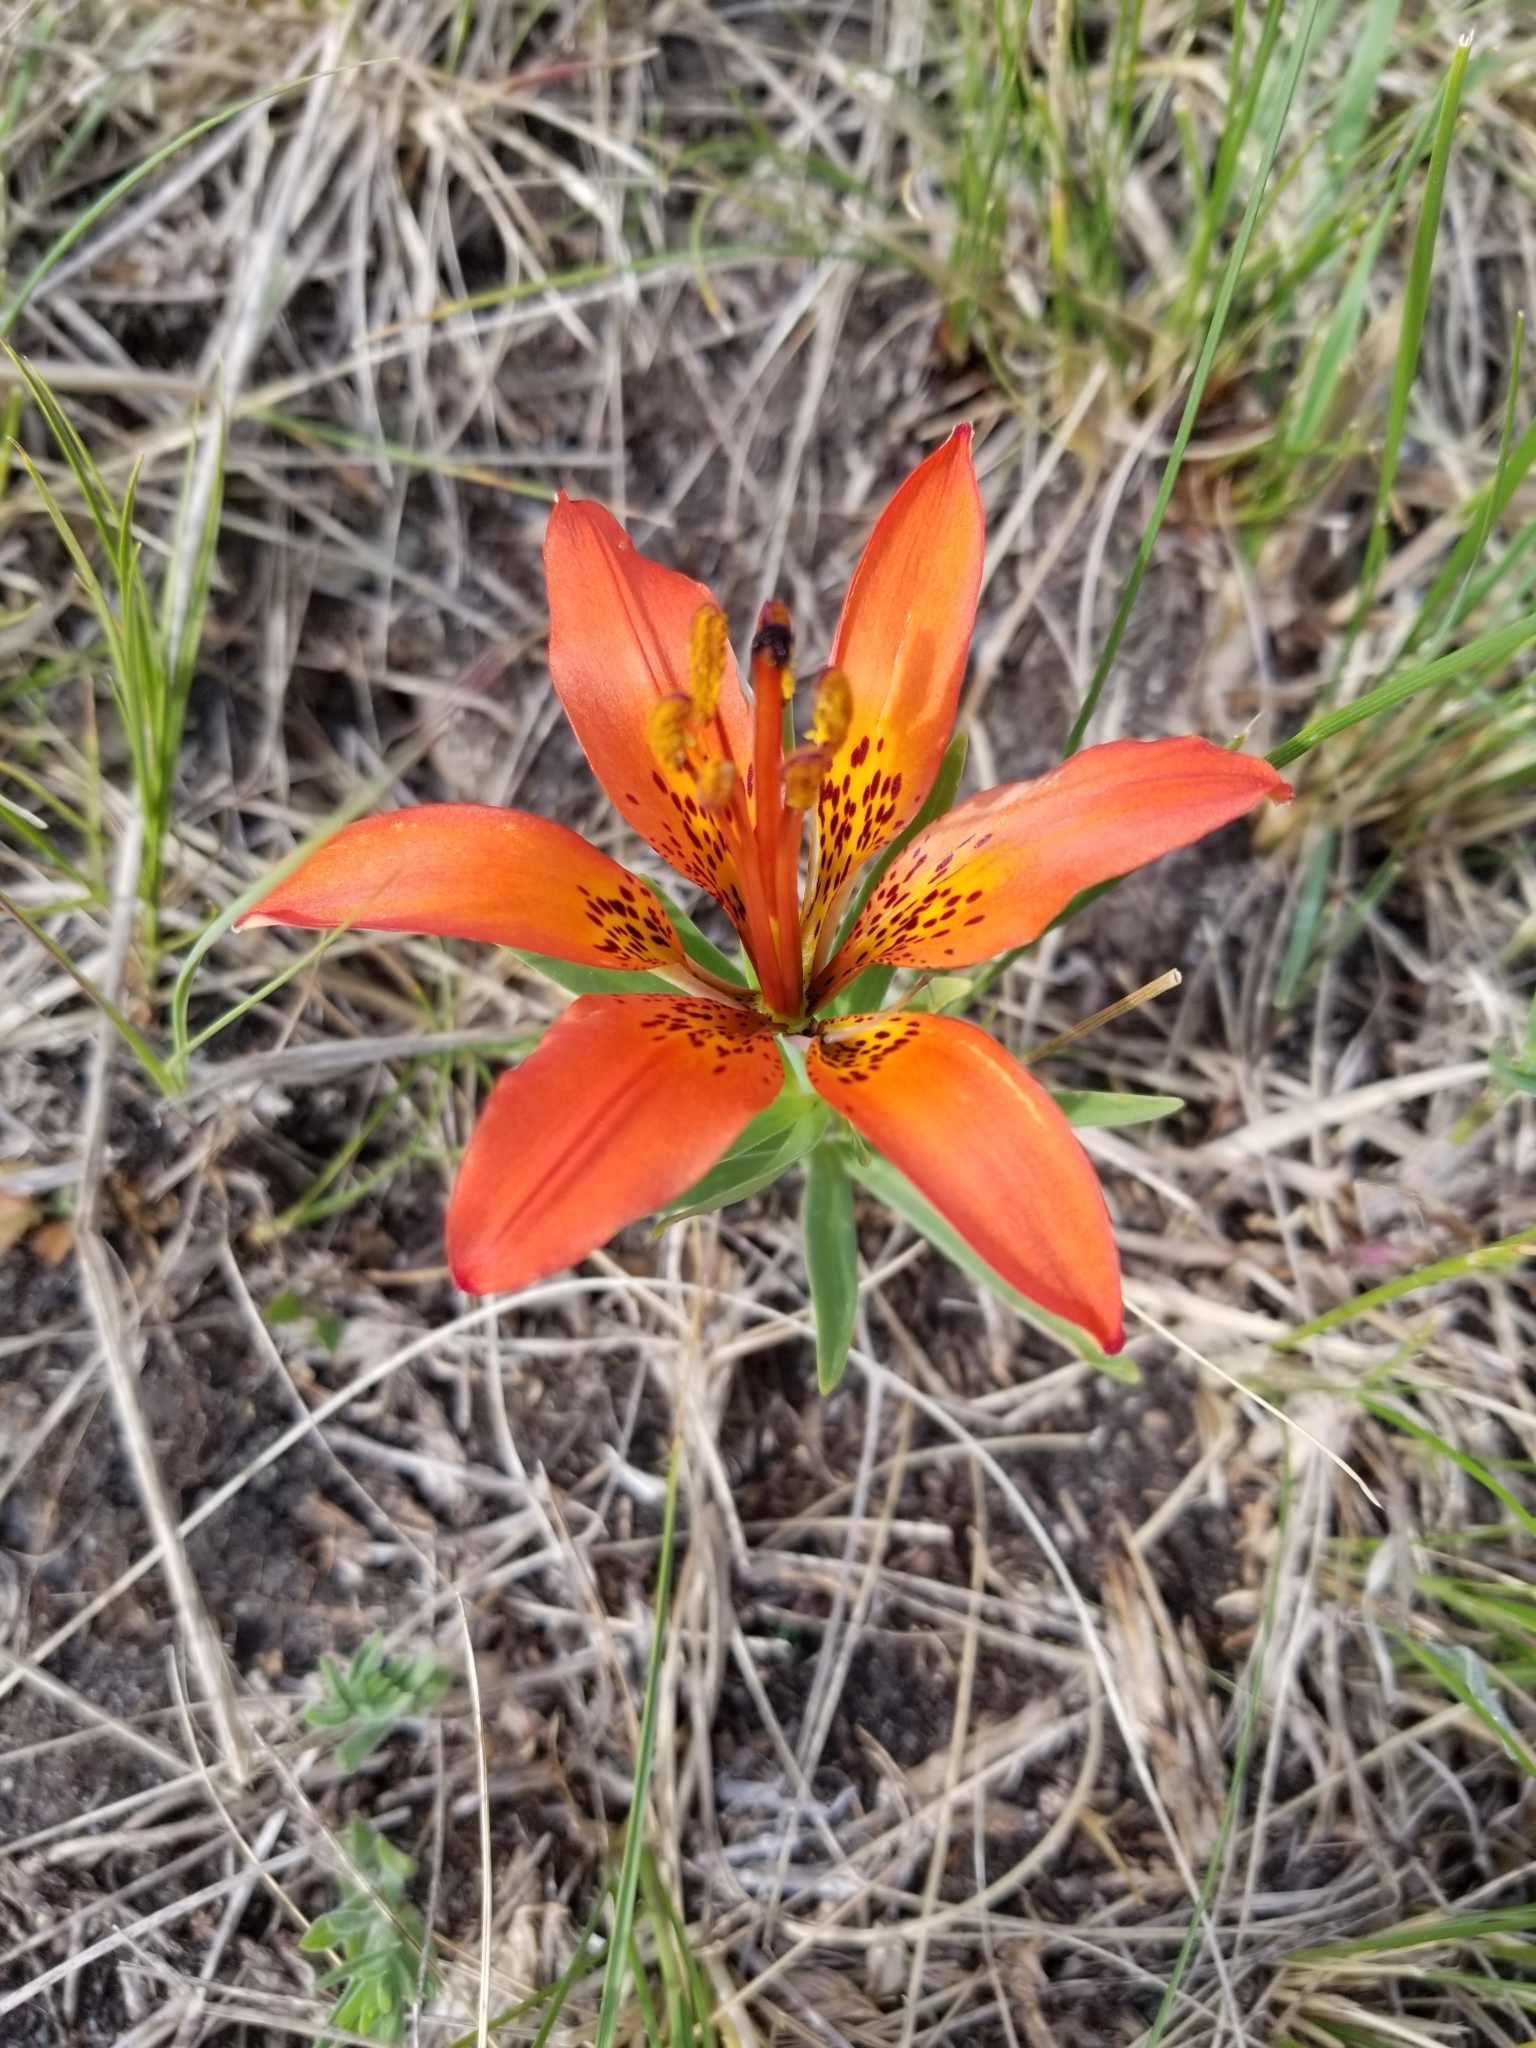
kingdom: Plantae
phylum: Tracheophyta
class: Liliopsida
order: Liliales
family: Liliaceae
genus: Lilium
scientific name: Lilium philadelphicum
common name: Red lily
